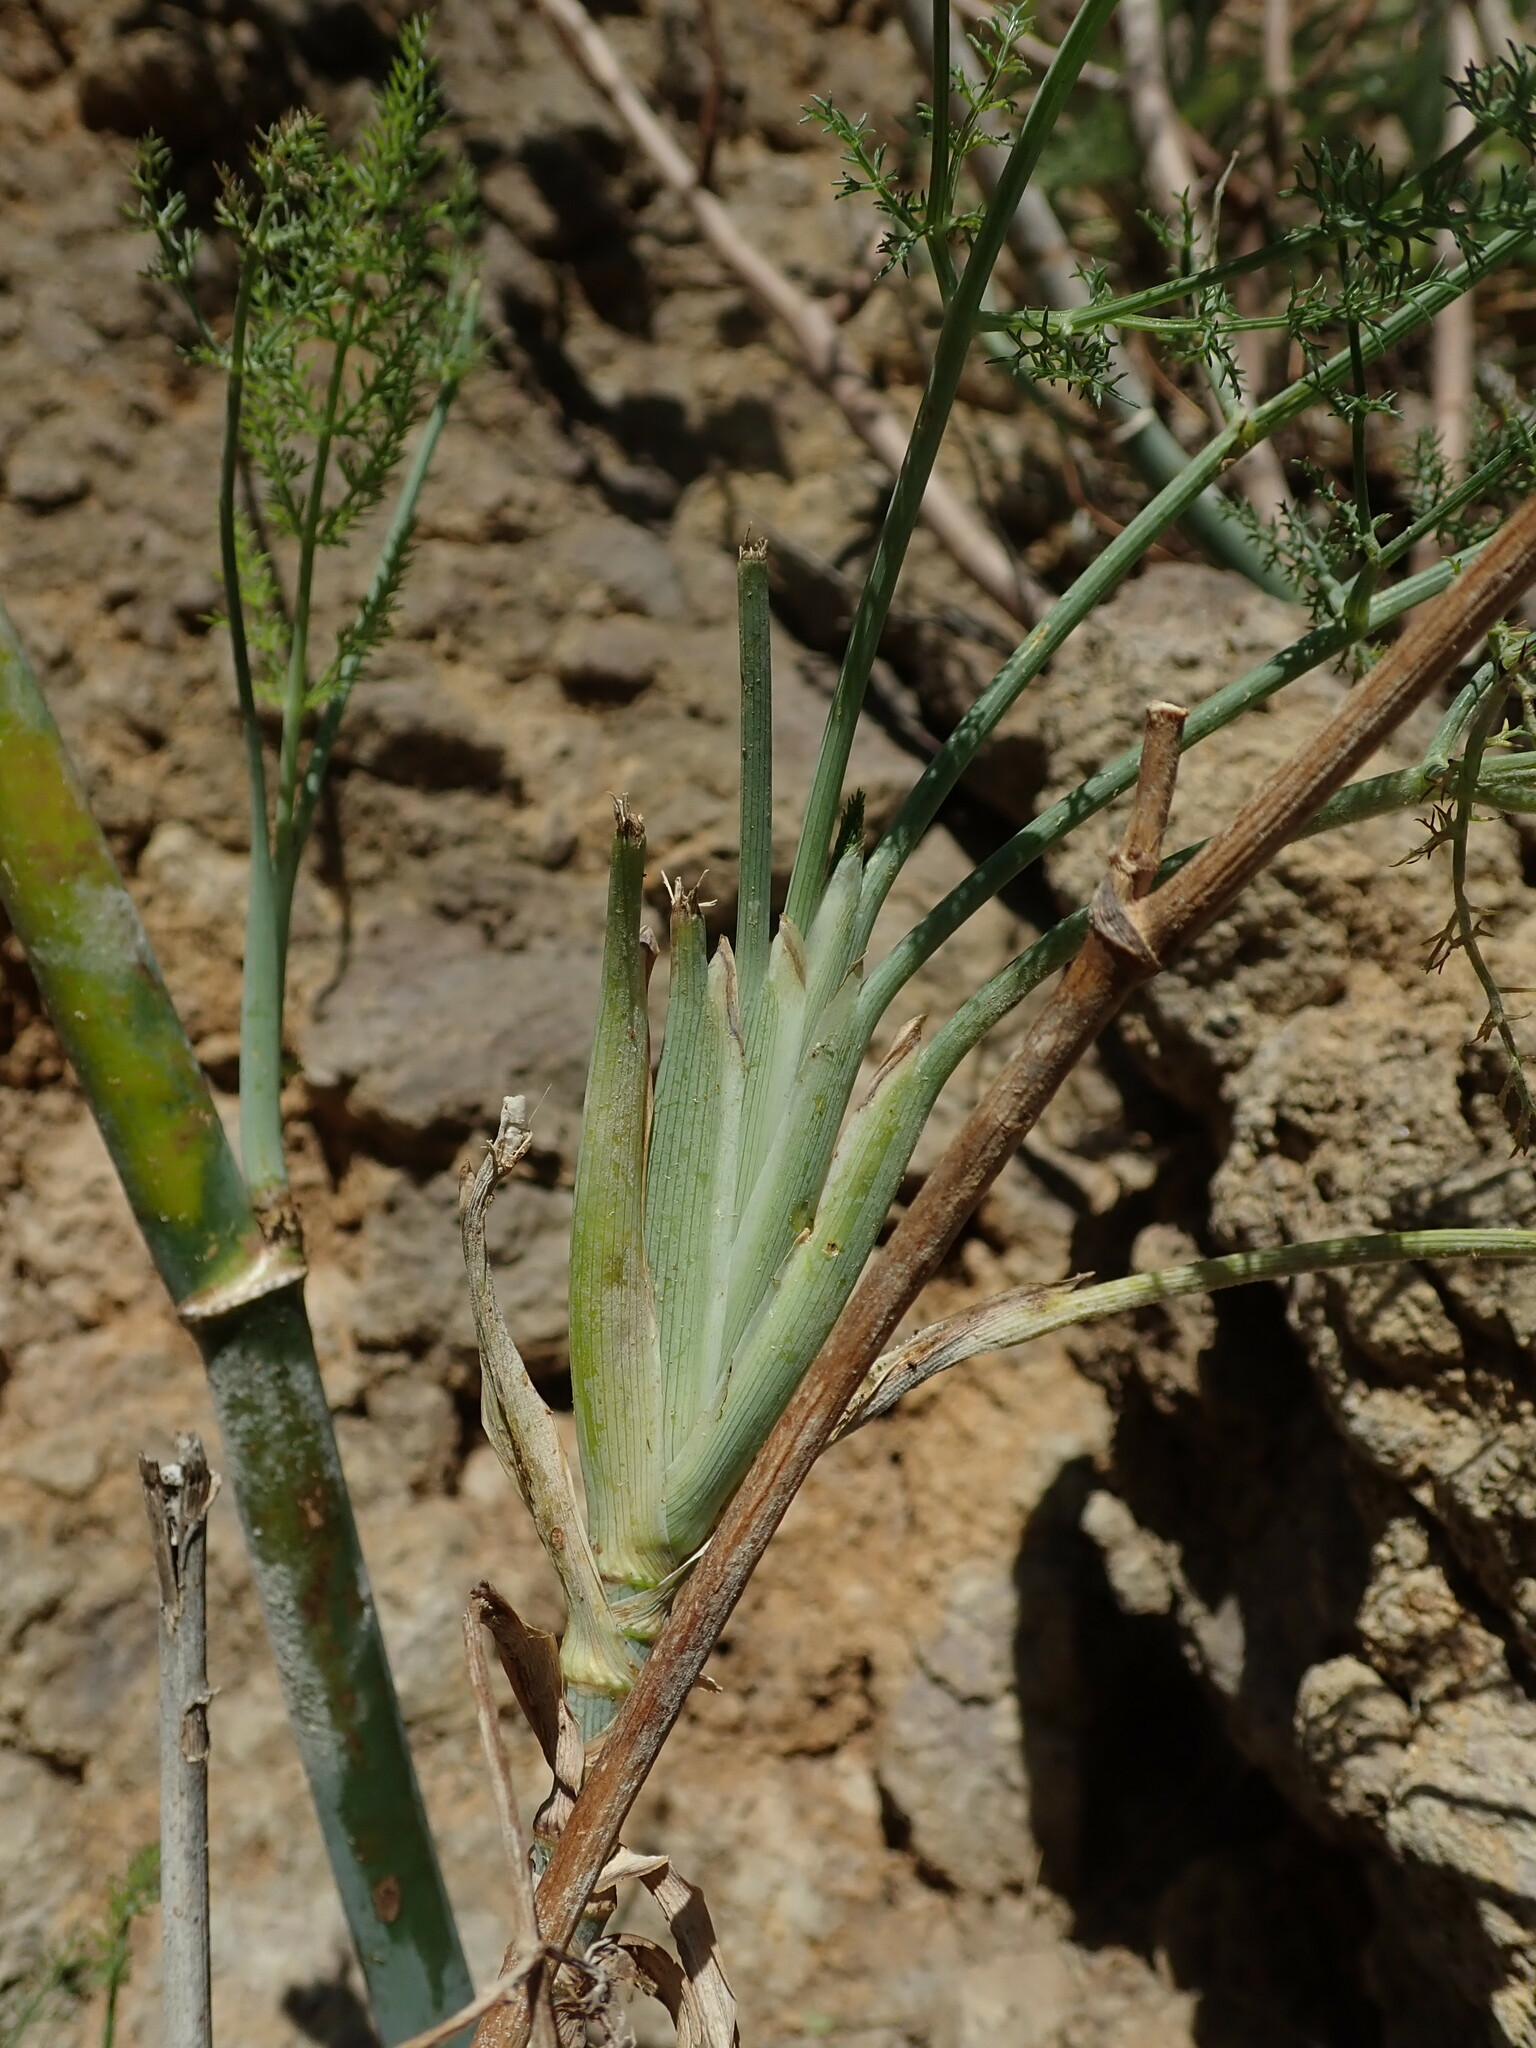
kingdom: Plantae
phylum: Tracheophyta
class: Magnoliopsida
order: Apiales
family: Apiaceae
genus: Foeniculum
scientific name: Foeniculum vulgare
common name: Fennel
